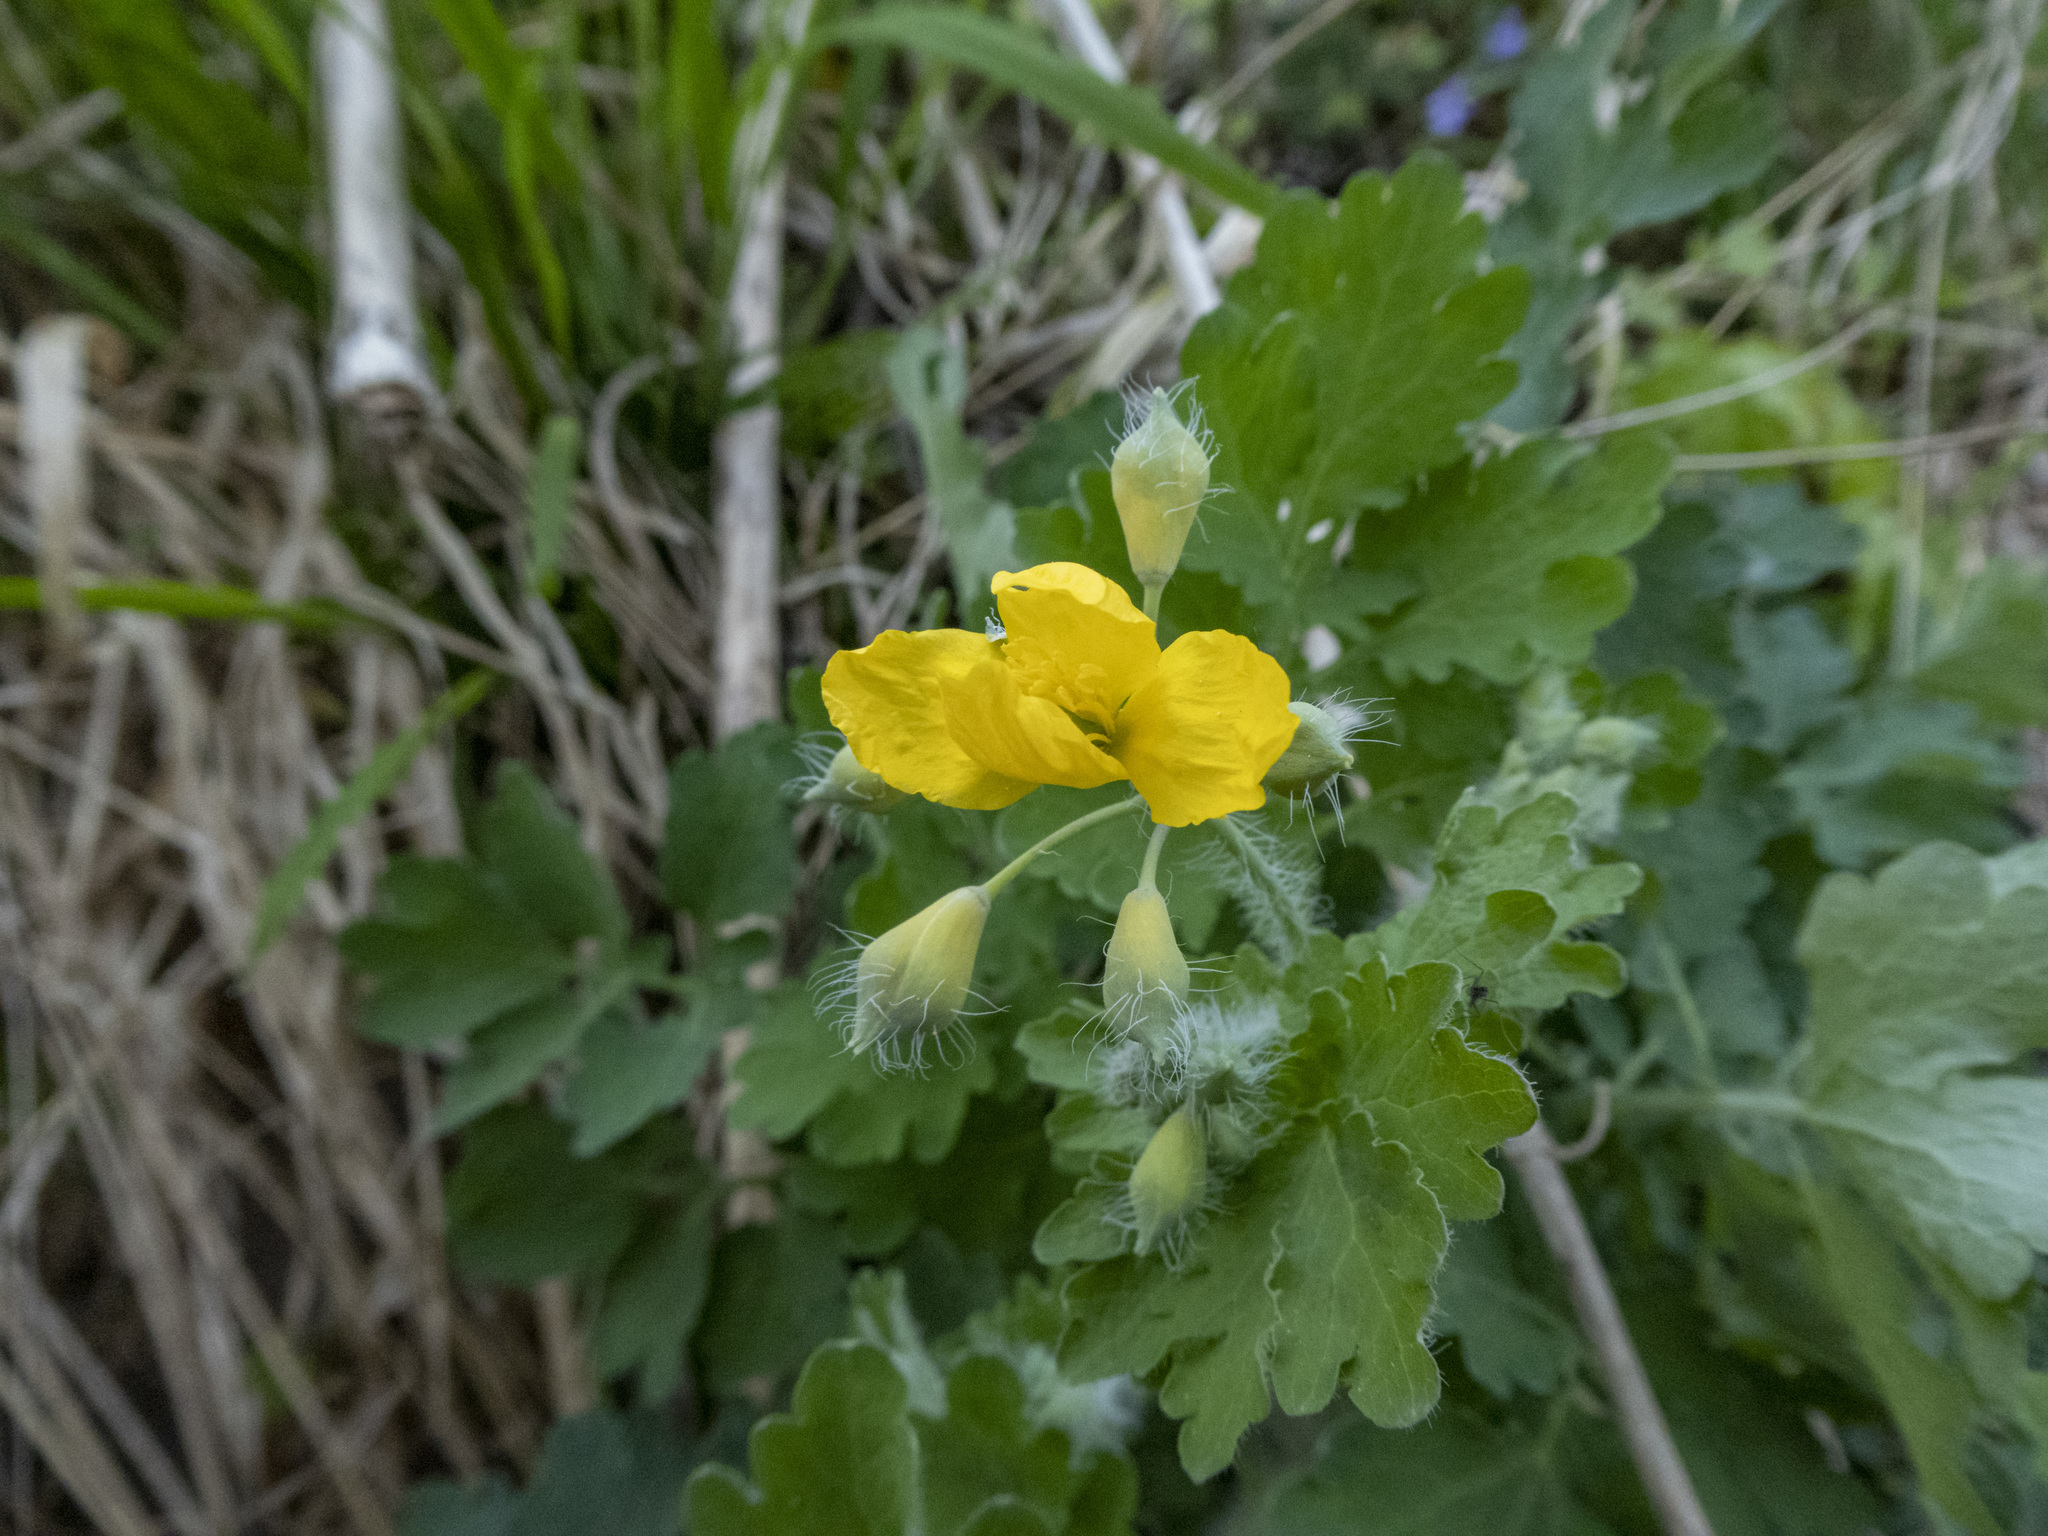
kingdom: Plantae
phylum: Tracheophyta
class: Magnoliopsida
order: Ranunculales
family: Papaveraceae
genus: Chelidonium
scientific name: Chelidonium majus
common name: Greater celandine
